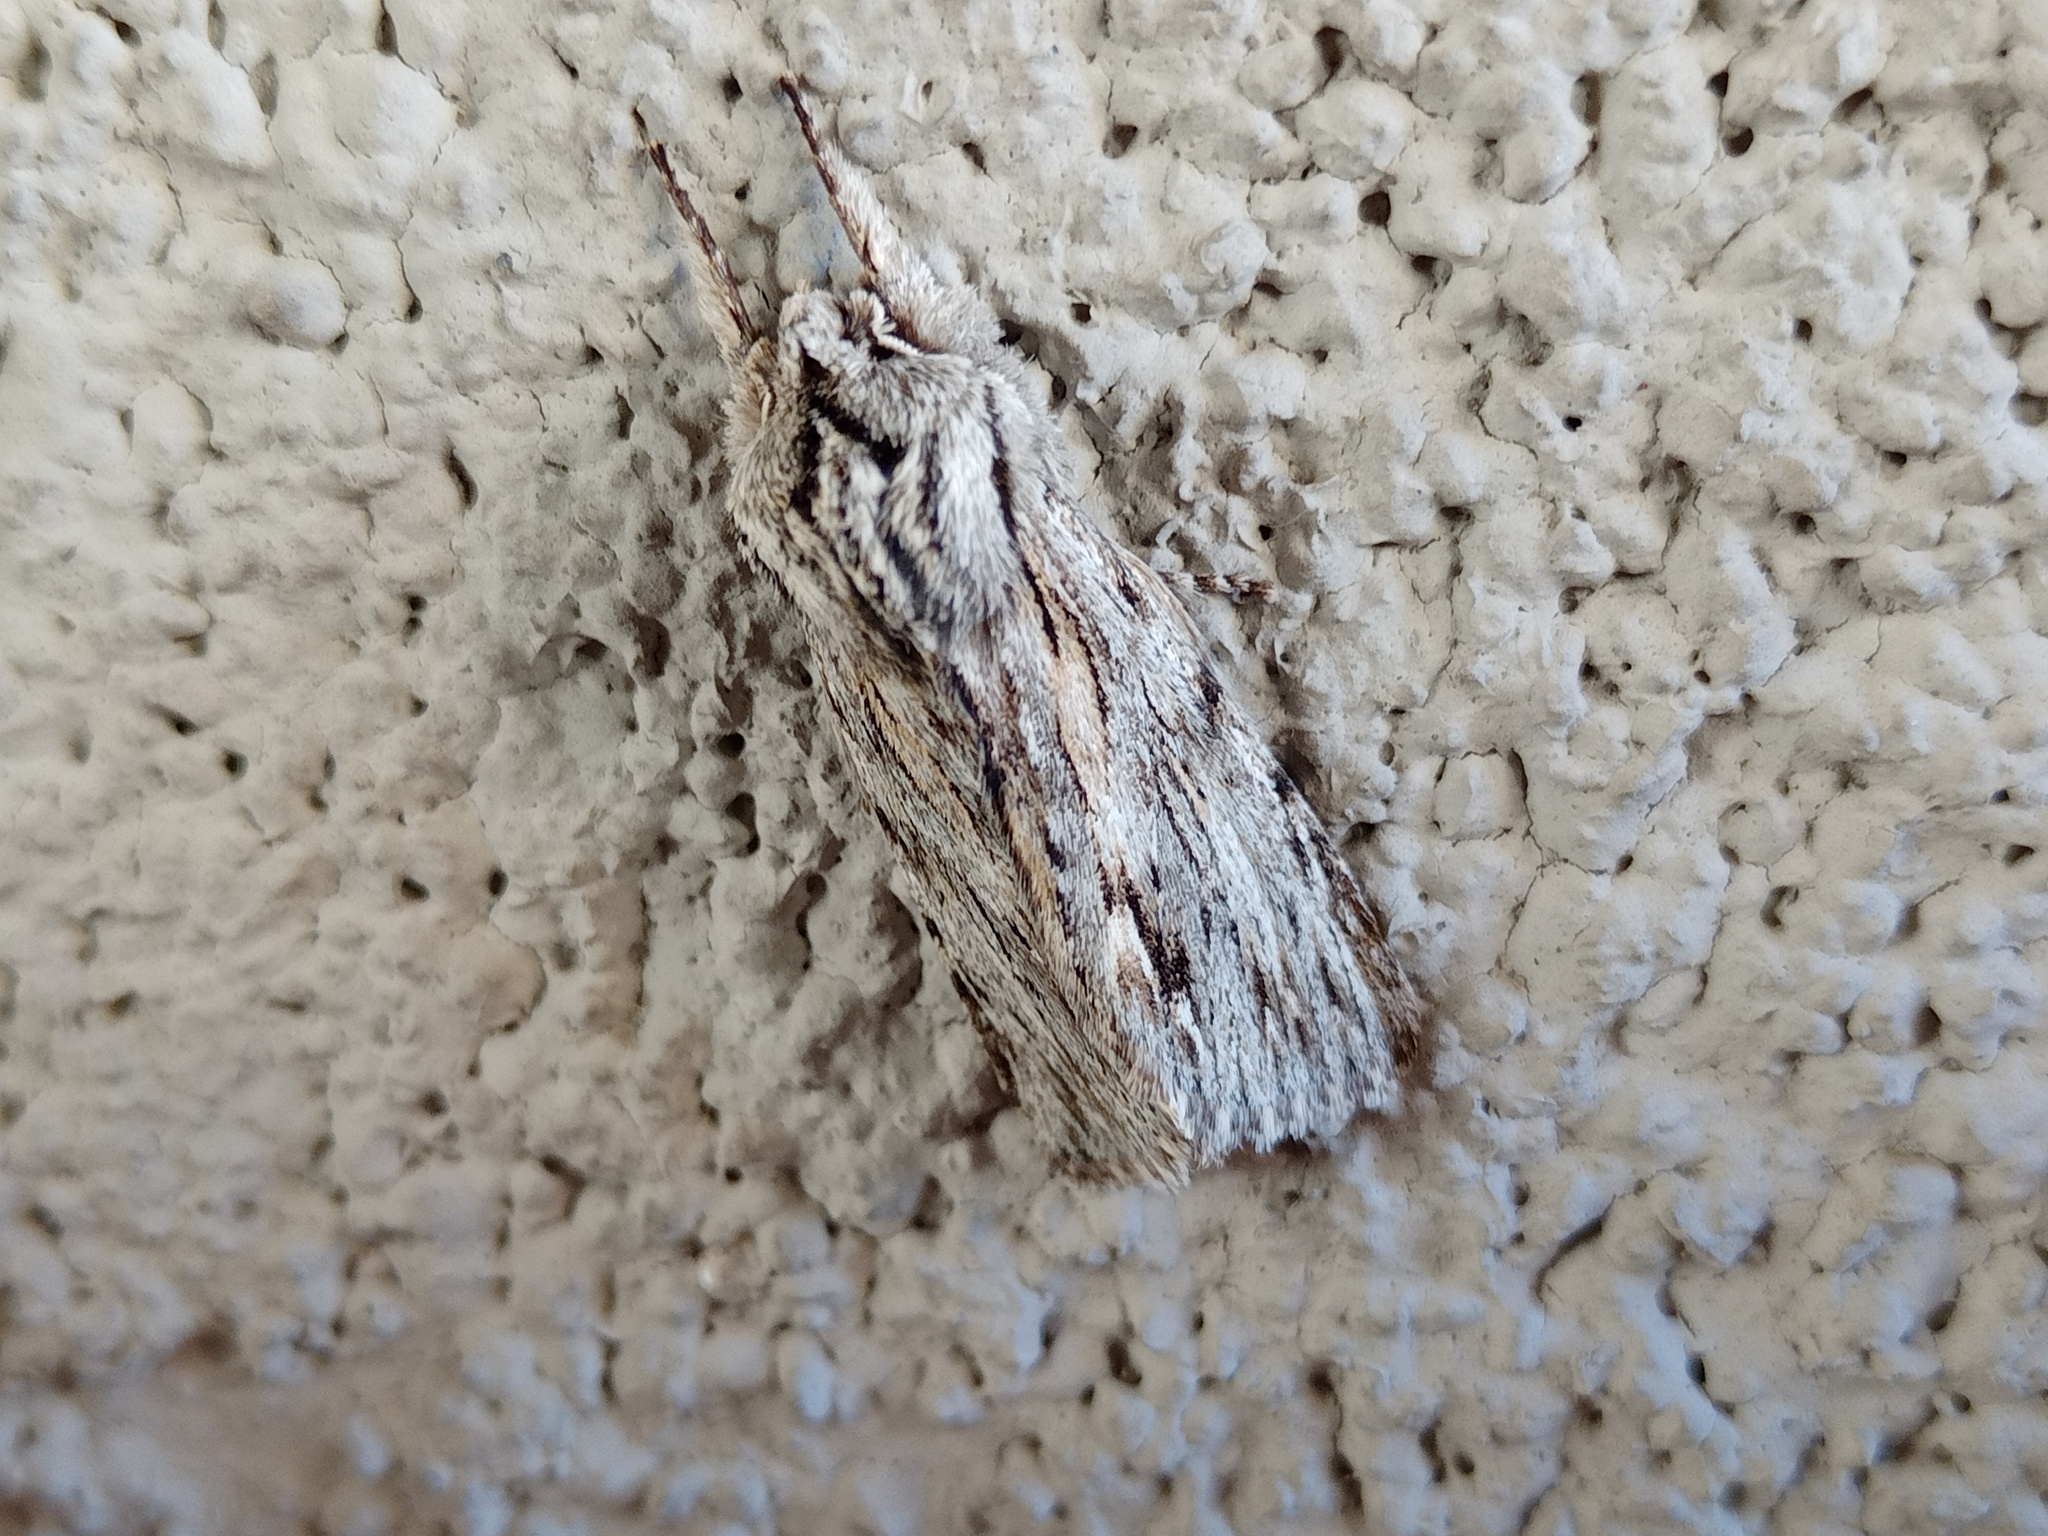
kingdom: Animalia
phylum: Arthropoda
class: Insecta
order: Lepidoptera
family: Noctuidae
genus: Asteroscopus
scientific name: Asteroscopus sphinx
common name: The sprawler
